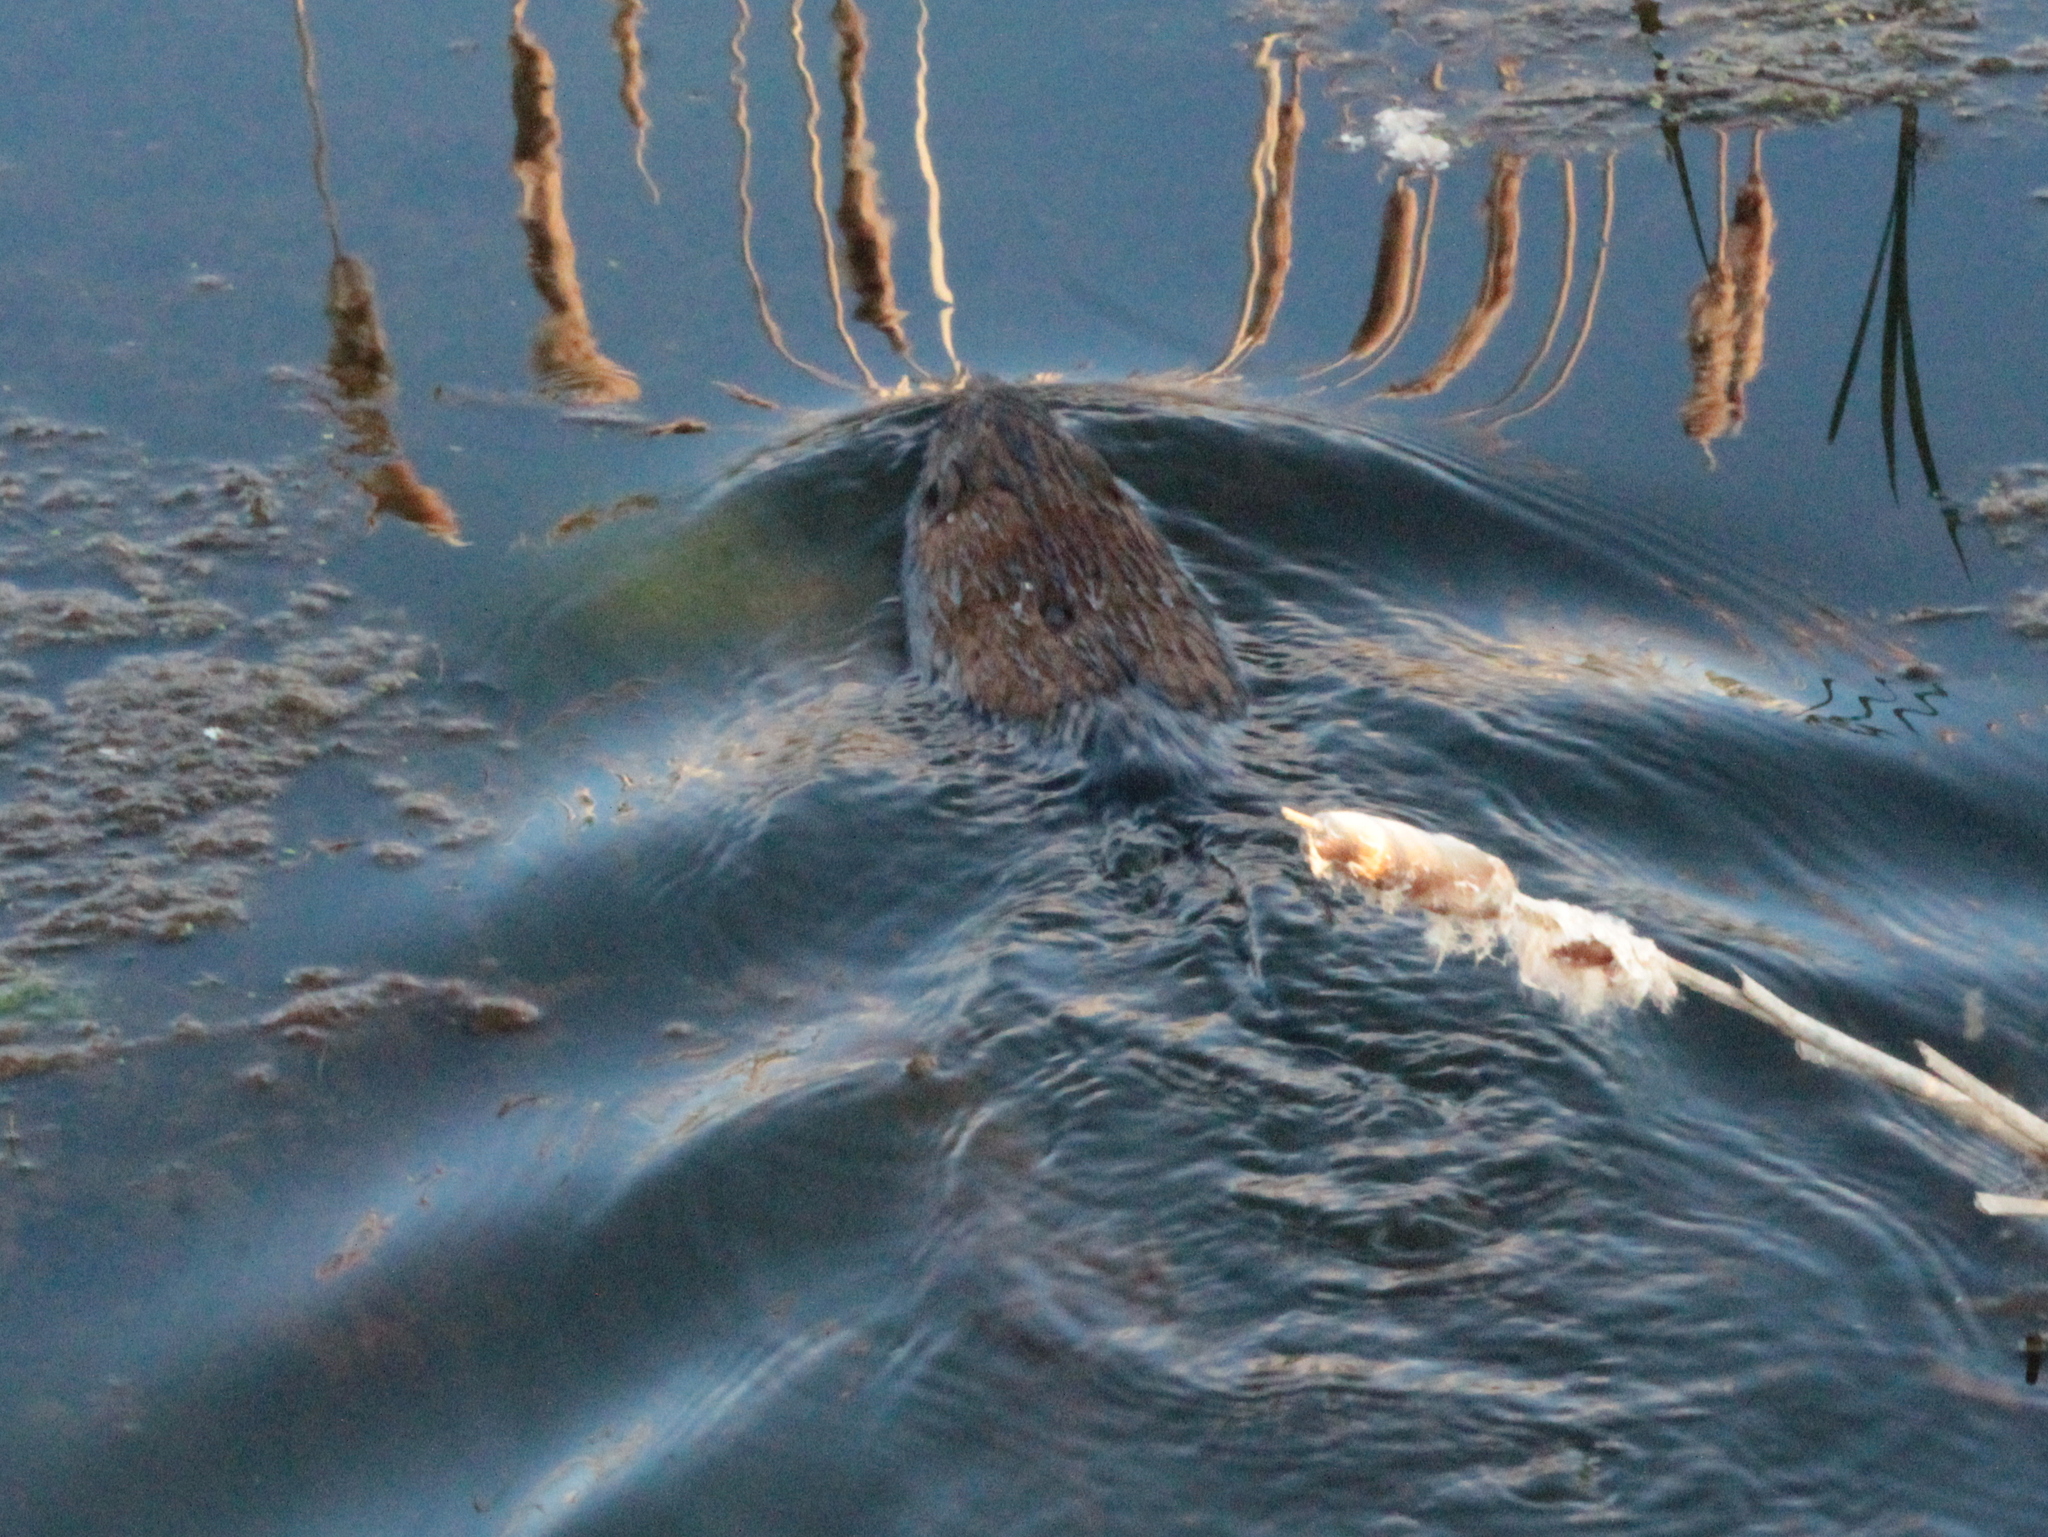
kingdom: Animalia
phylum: Chordata
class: Mammalia
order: Rodentia
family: Cricetidae
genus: Ondatra
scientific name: Ondatra zibethicus
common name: Muskrat
